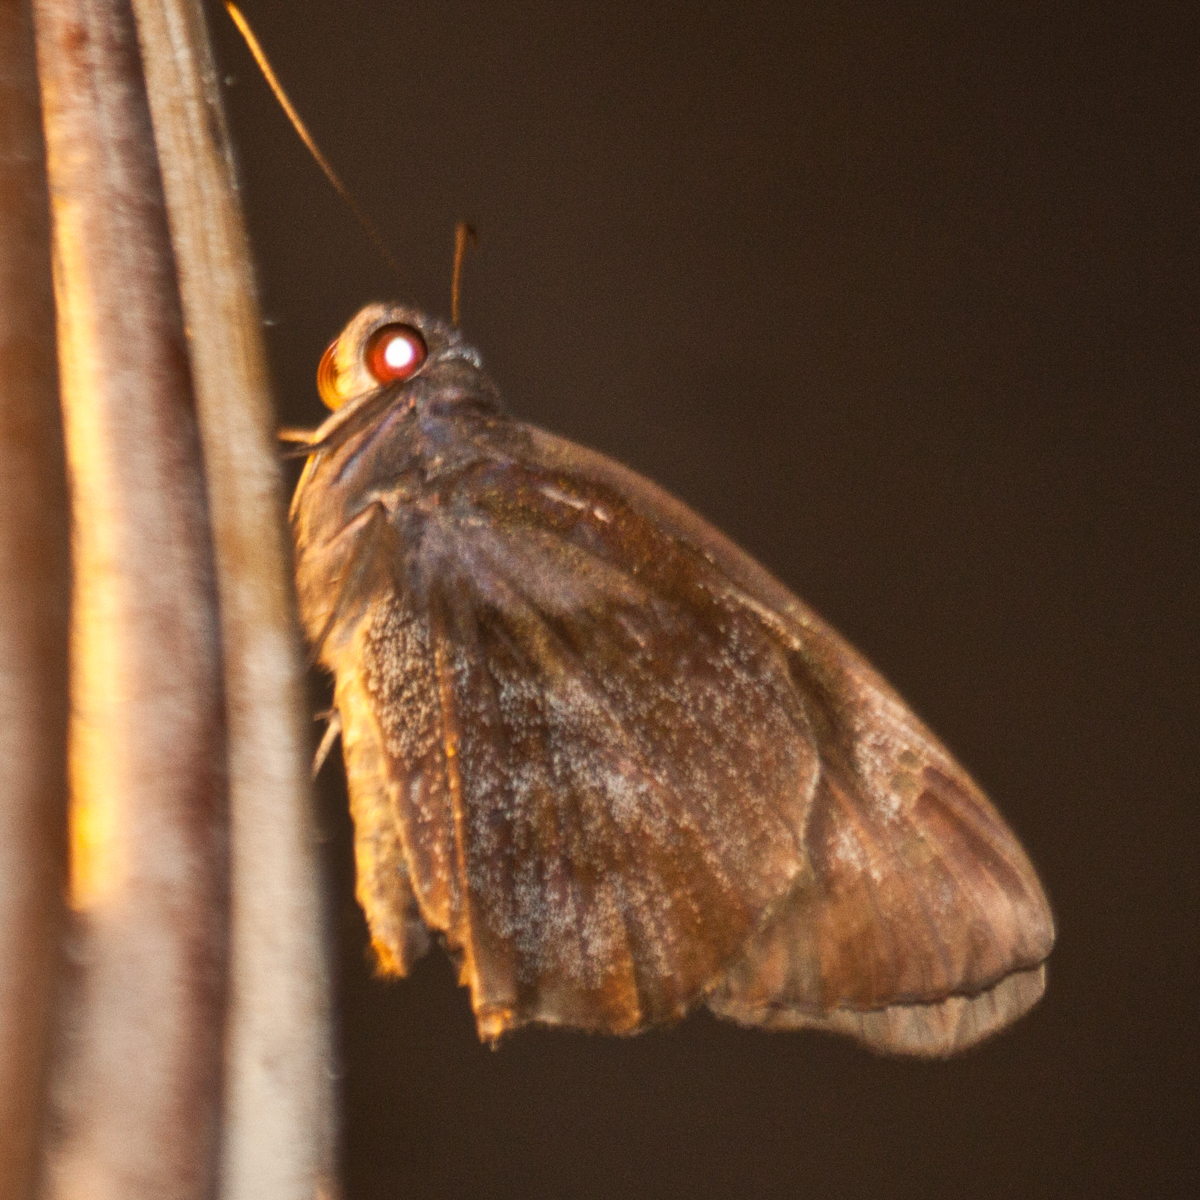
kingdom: Animalia
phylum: Arthropoda
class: Insecta
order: Lepidoptera
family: Hesperiidae
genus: Gangara
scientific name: Gangara thyrsis
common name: Giant redeye
